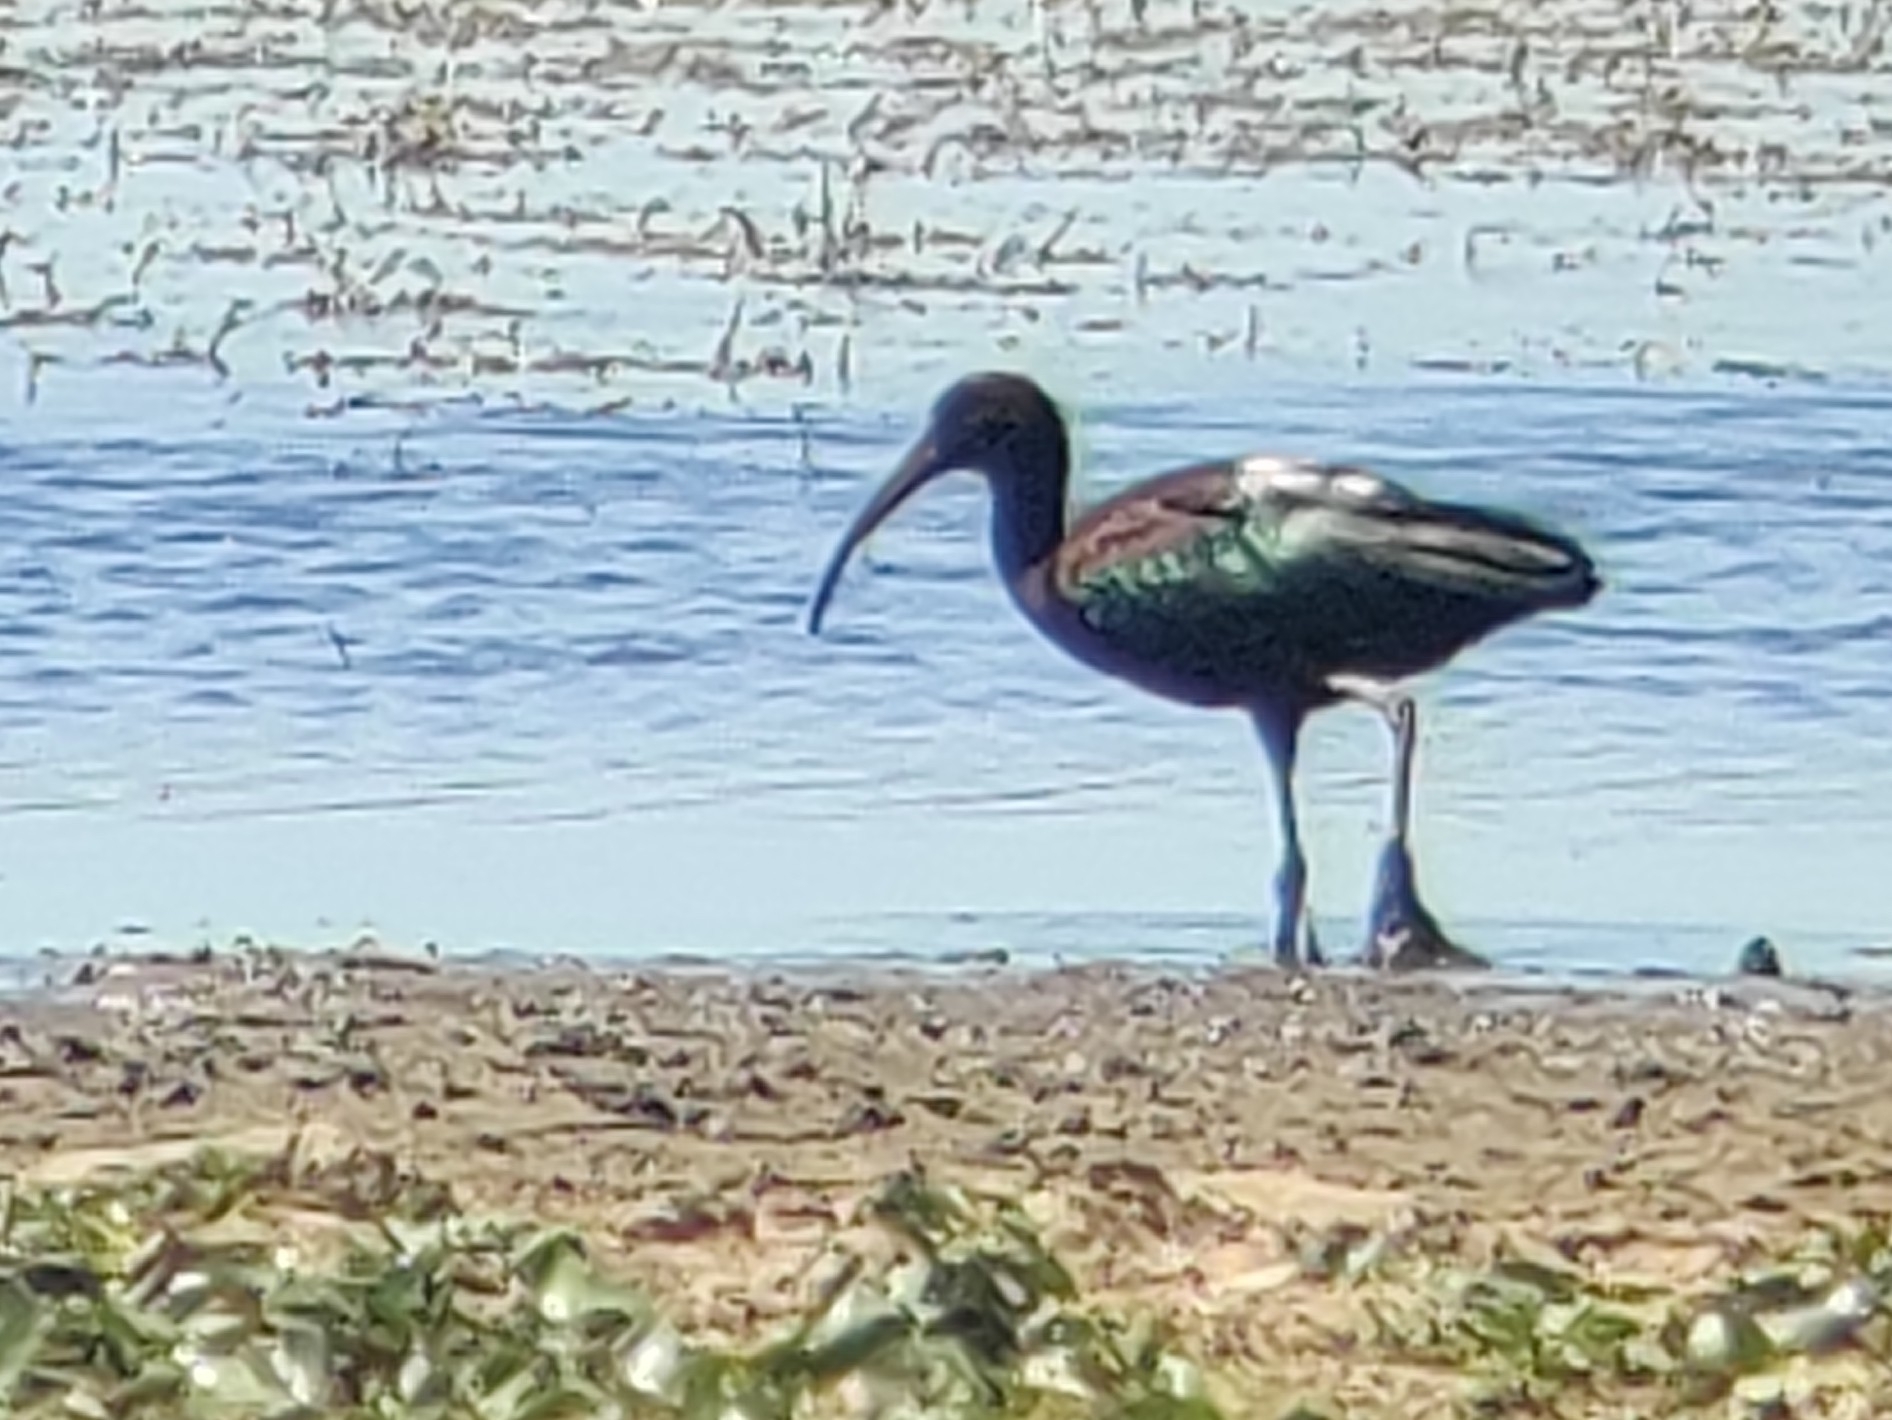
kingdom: Animalia
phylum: Chordata
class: Aves
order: Pelecaniformes
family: Threskiornithidae
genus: Plegadis
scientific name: Plegadis falcinellus
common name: Glossy ibis
